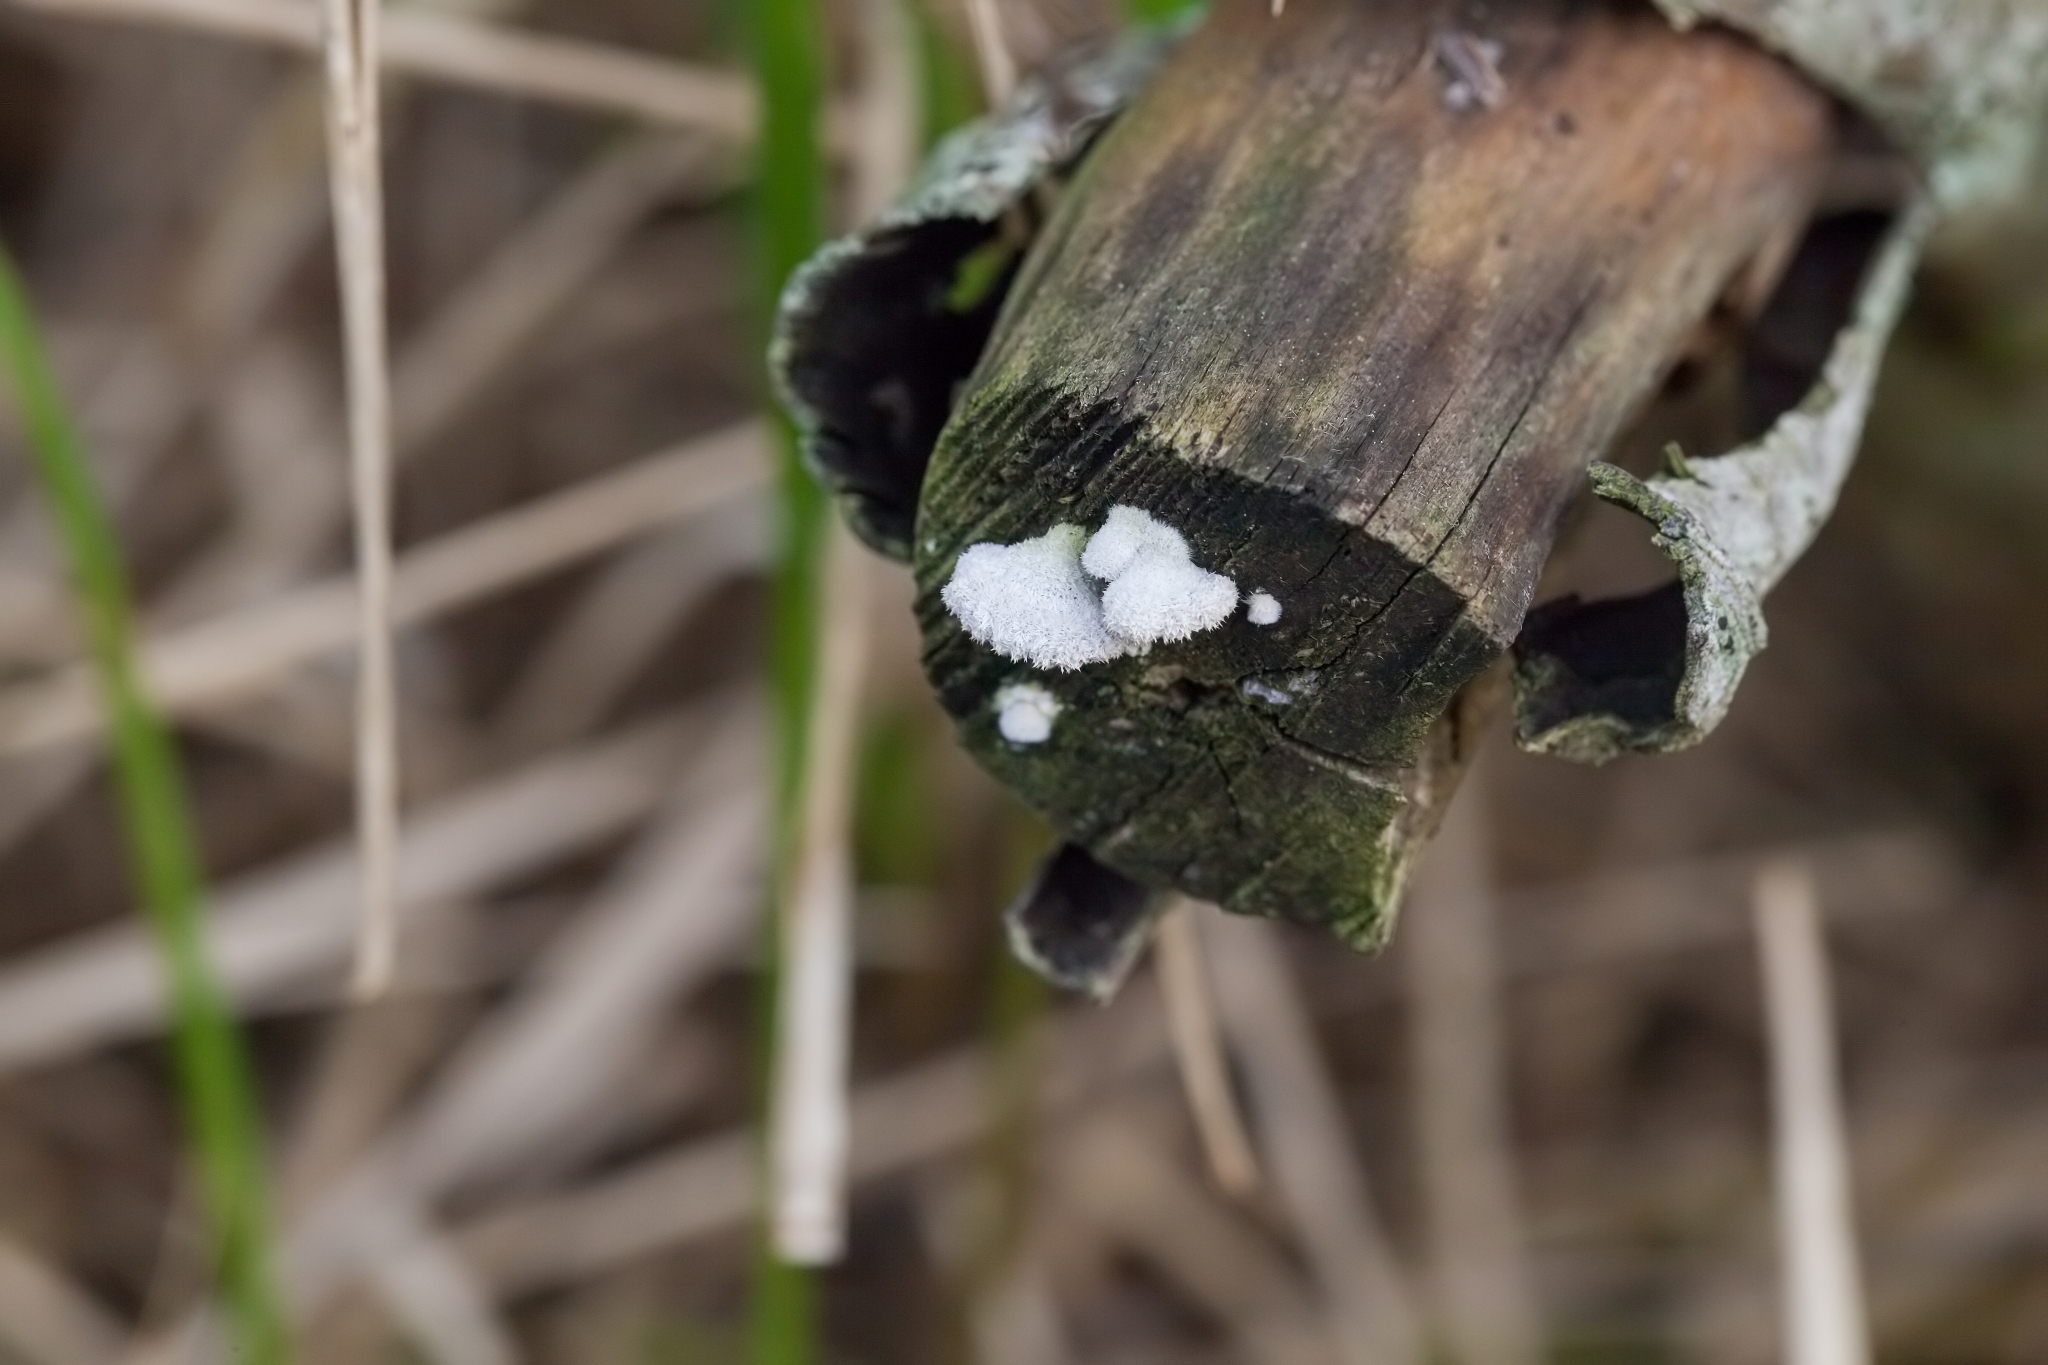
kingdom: Fungi
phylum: Basidiomycota
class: Agaricomycetes
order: Agaricales
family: Schizophyllaceae
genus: Schizophyllum
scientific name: Schizophyllum commune
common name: Common porecrust
